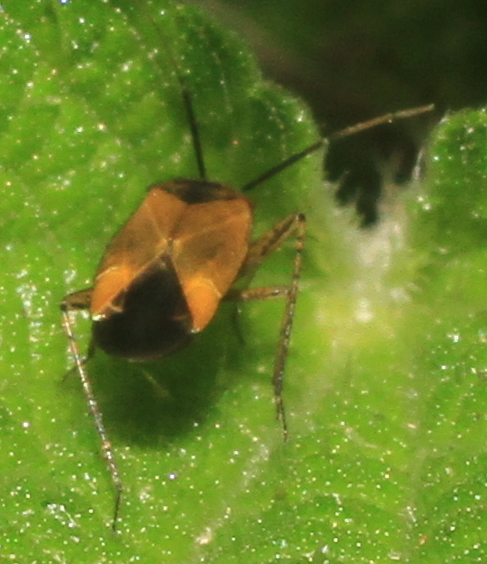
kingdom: Animalia
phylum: Arthropoda
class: Insecta
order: Hemiptera
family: Miridae
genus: Plagiognathus
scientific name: Plagiognathus arbustorum
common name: Plant bug
